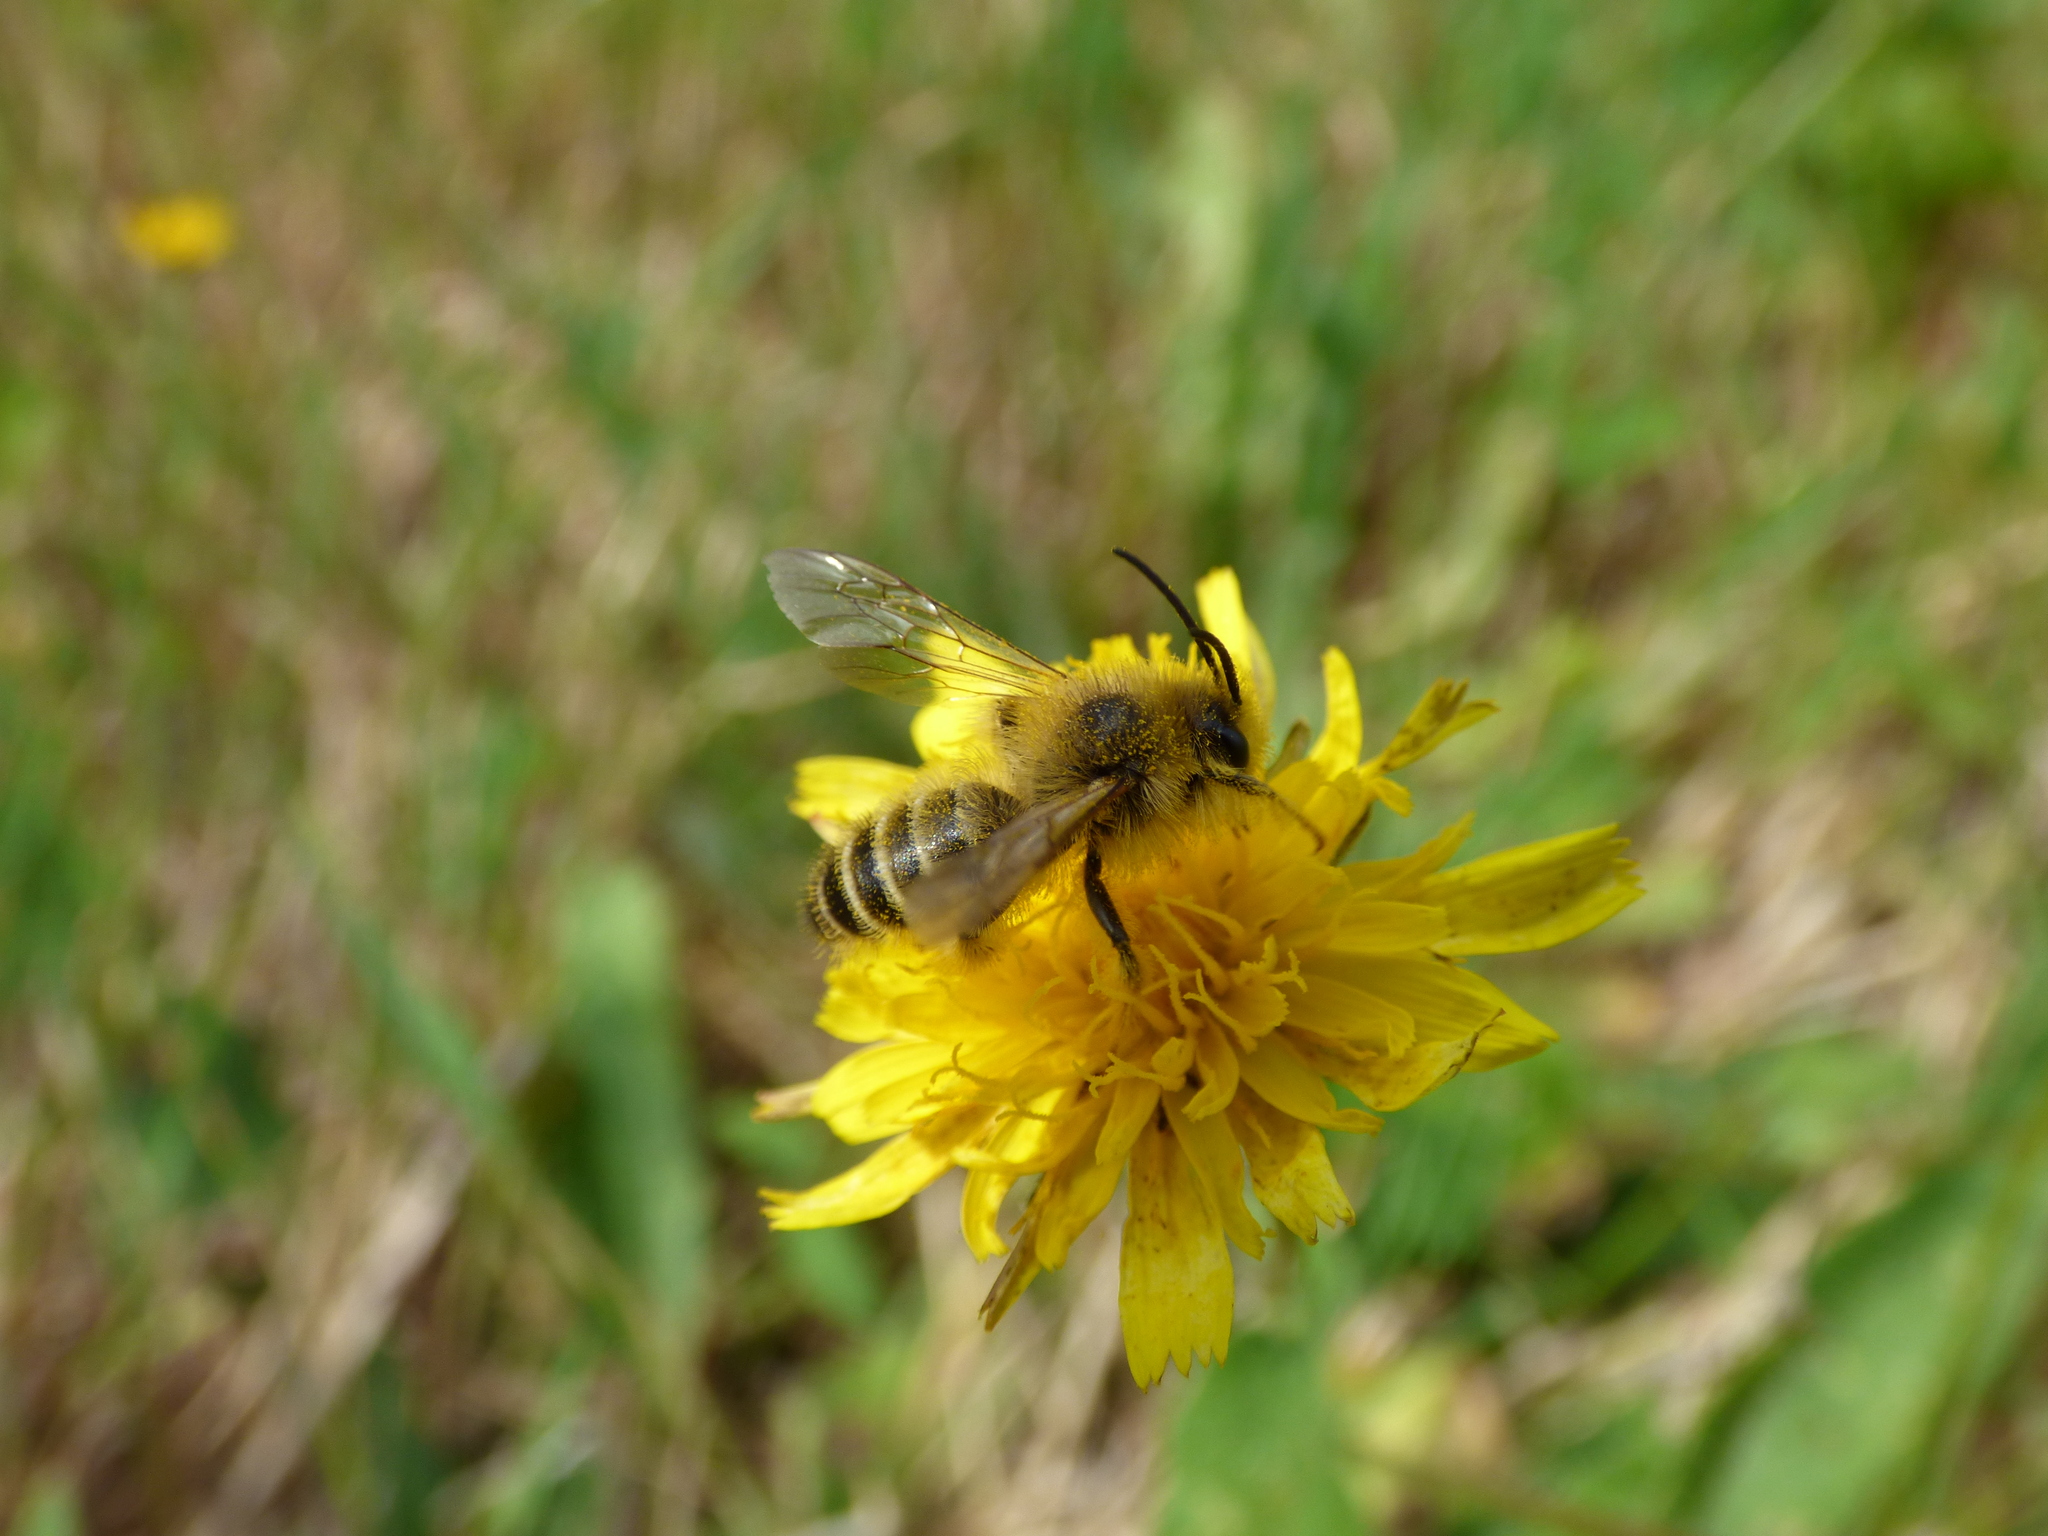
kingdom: Animalia
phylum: Arthropoda
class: Insecta
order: Hymenoptera
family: Melittidae
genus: Dasypoda
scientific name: Dasypoda hirtipes
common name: Pantaloon bee
